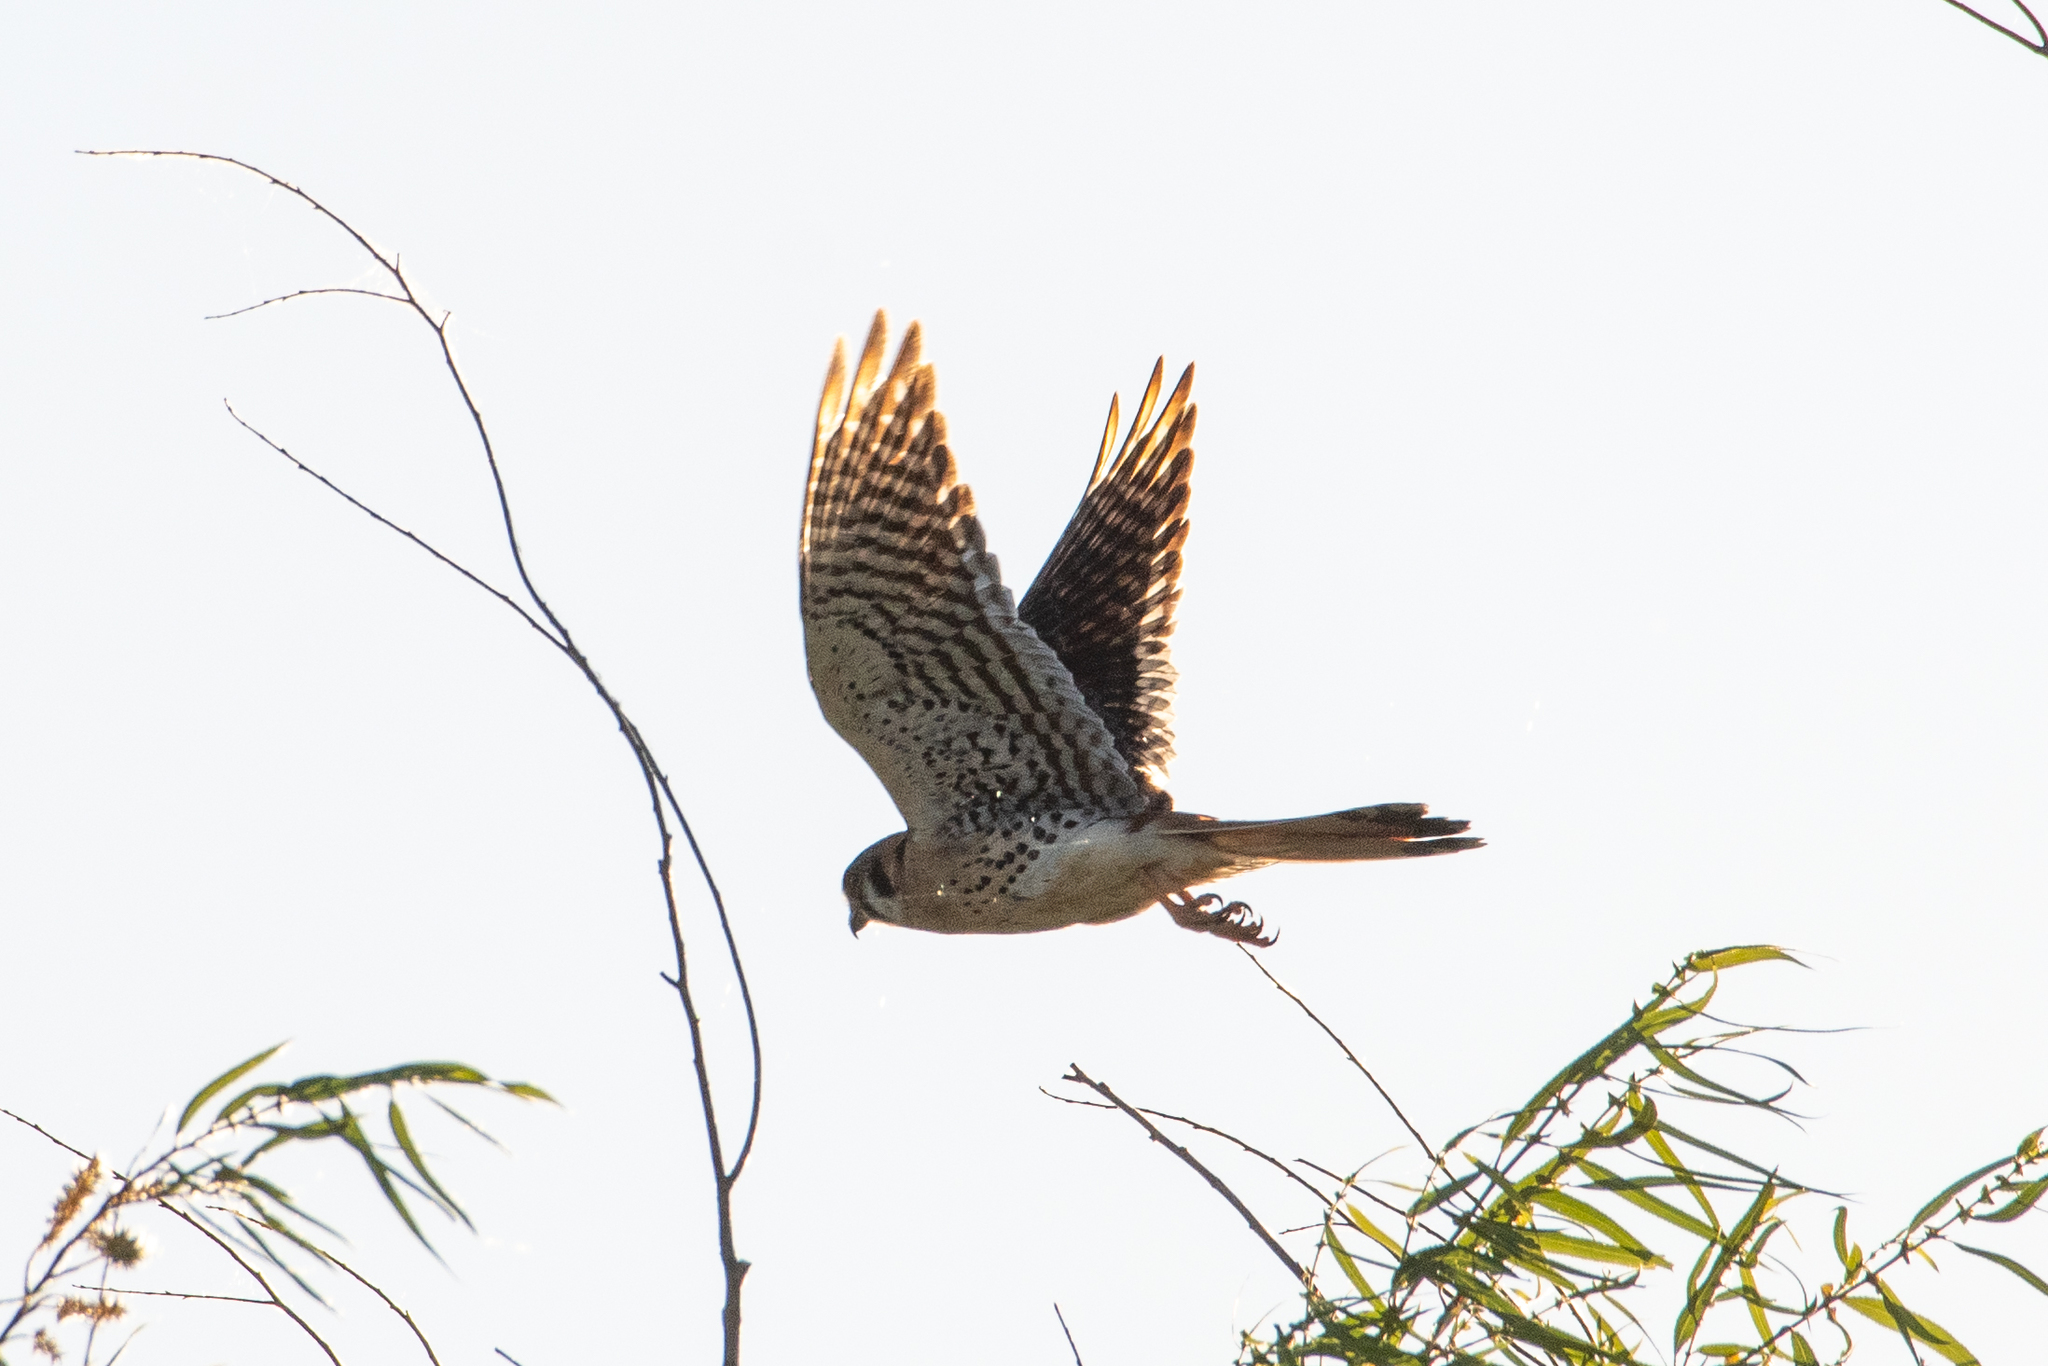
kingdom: Animalia
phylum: Chordata
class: Aves
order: Falconiformes
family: Falconidae
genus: Falco
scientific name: Falco sparverius
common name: American kestrel
